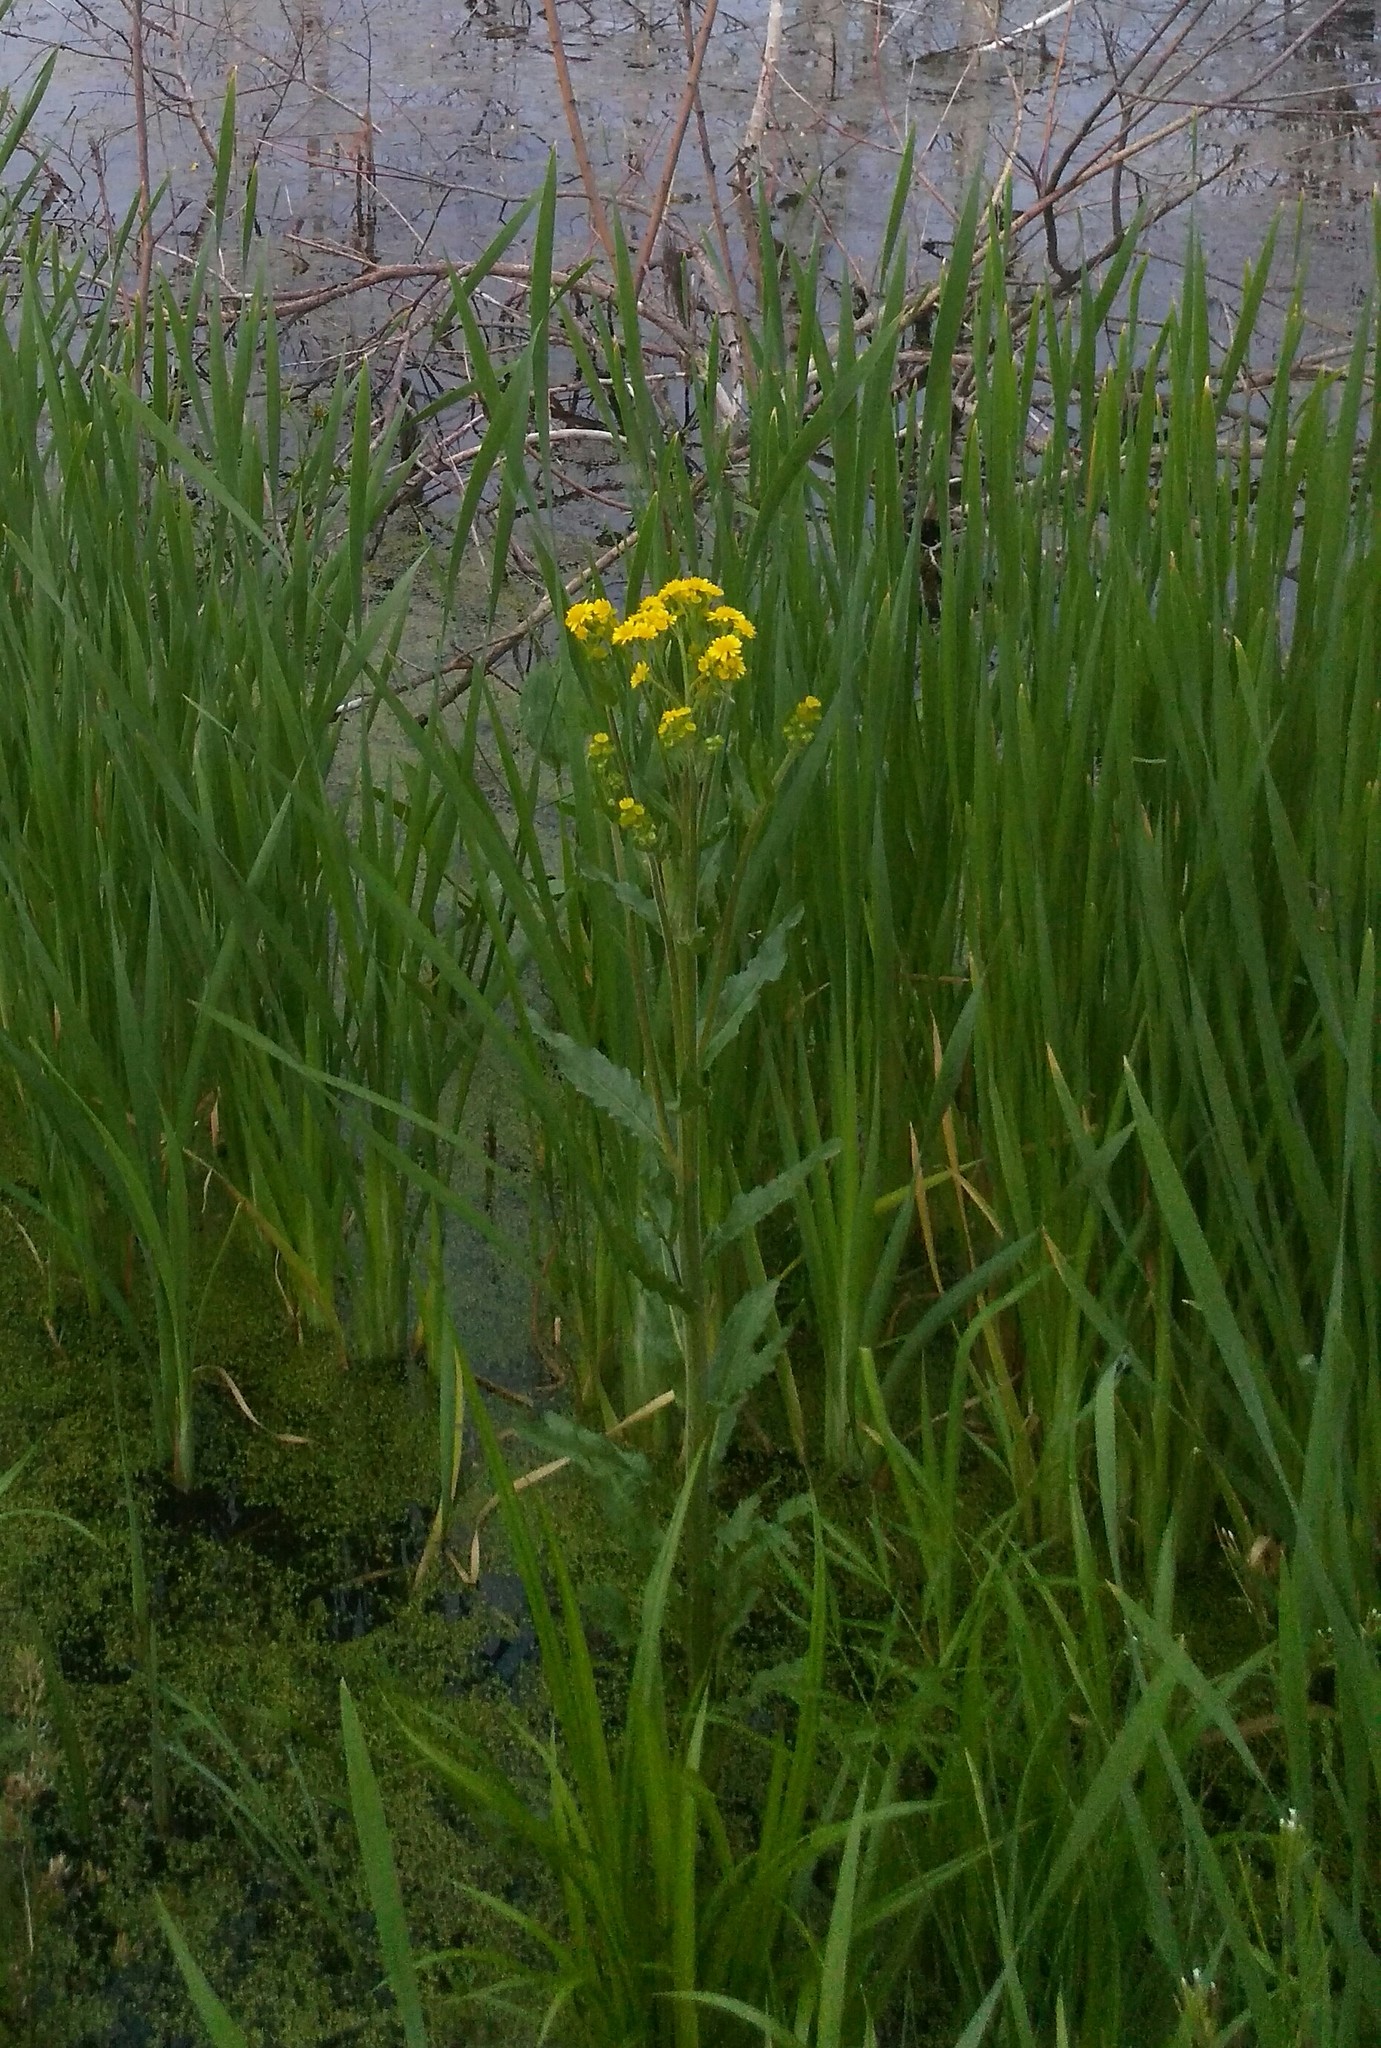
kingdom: Plantae
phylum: Tracheophyta
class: Magnoliopsida
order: Asterales
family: Asteraceae
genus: Tephroseris
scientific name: Tephroseris palustris
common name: Marsh fleawort
